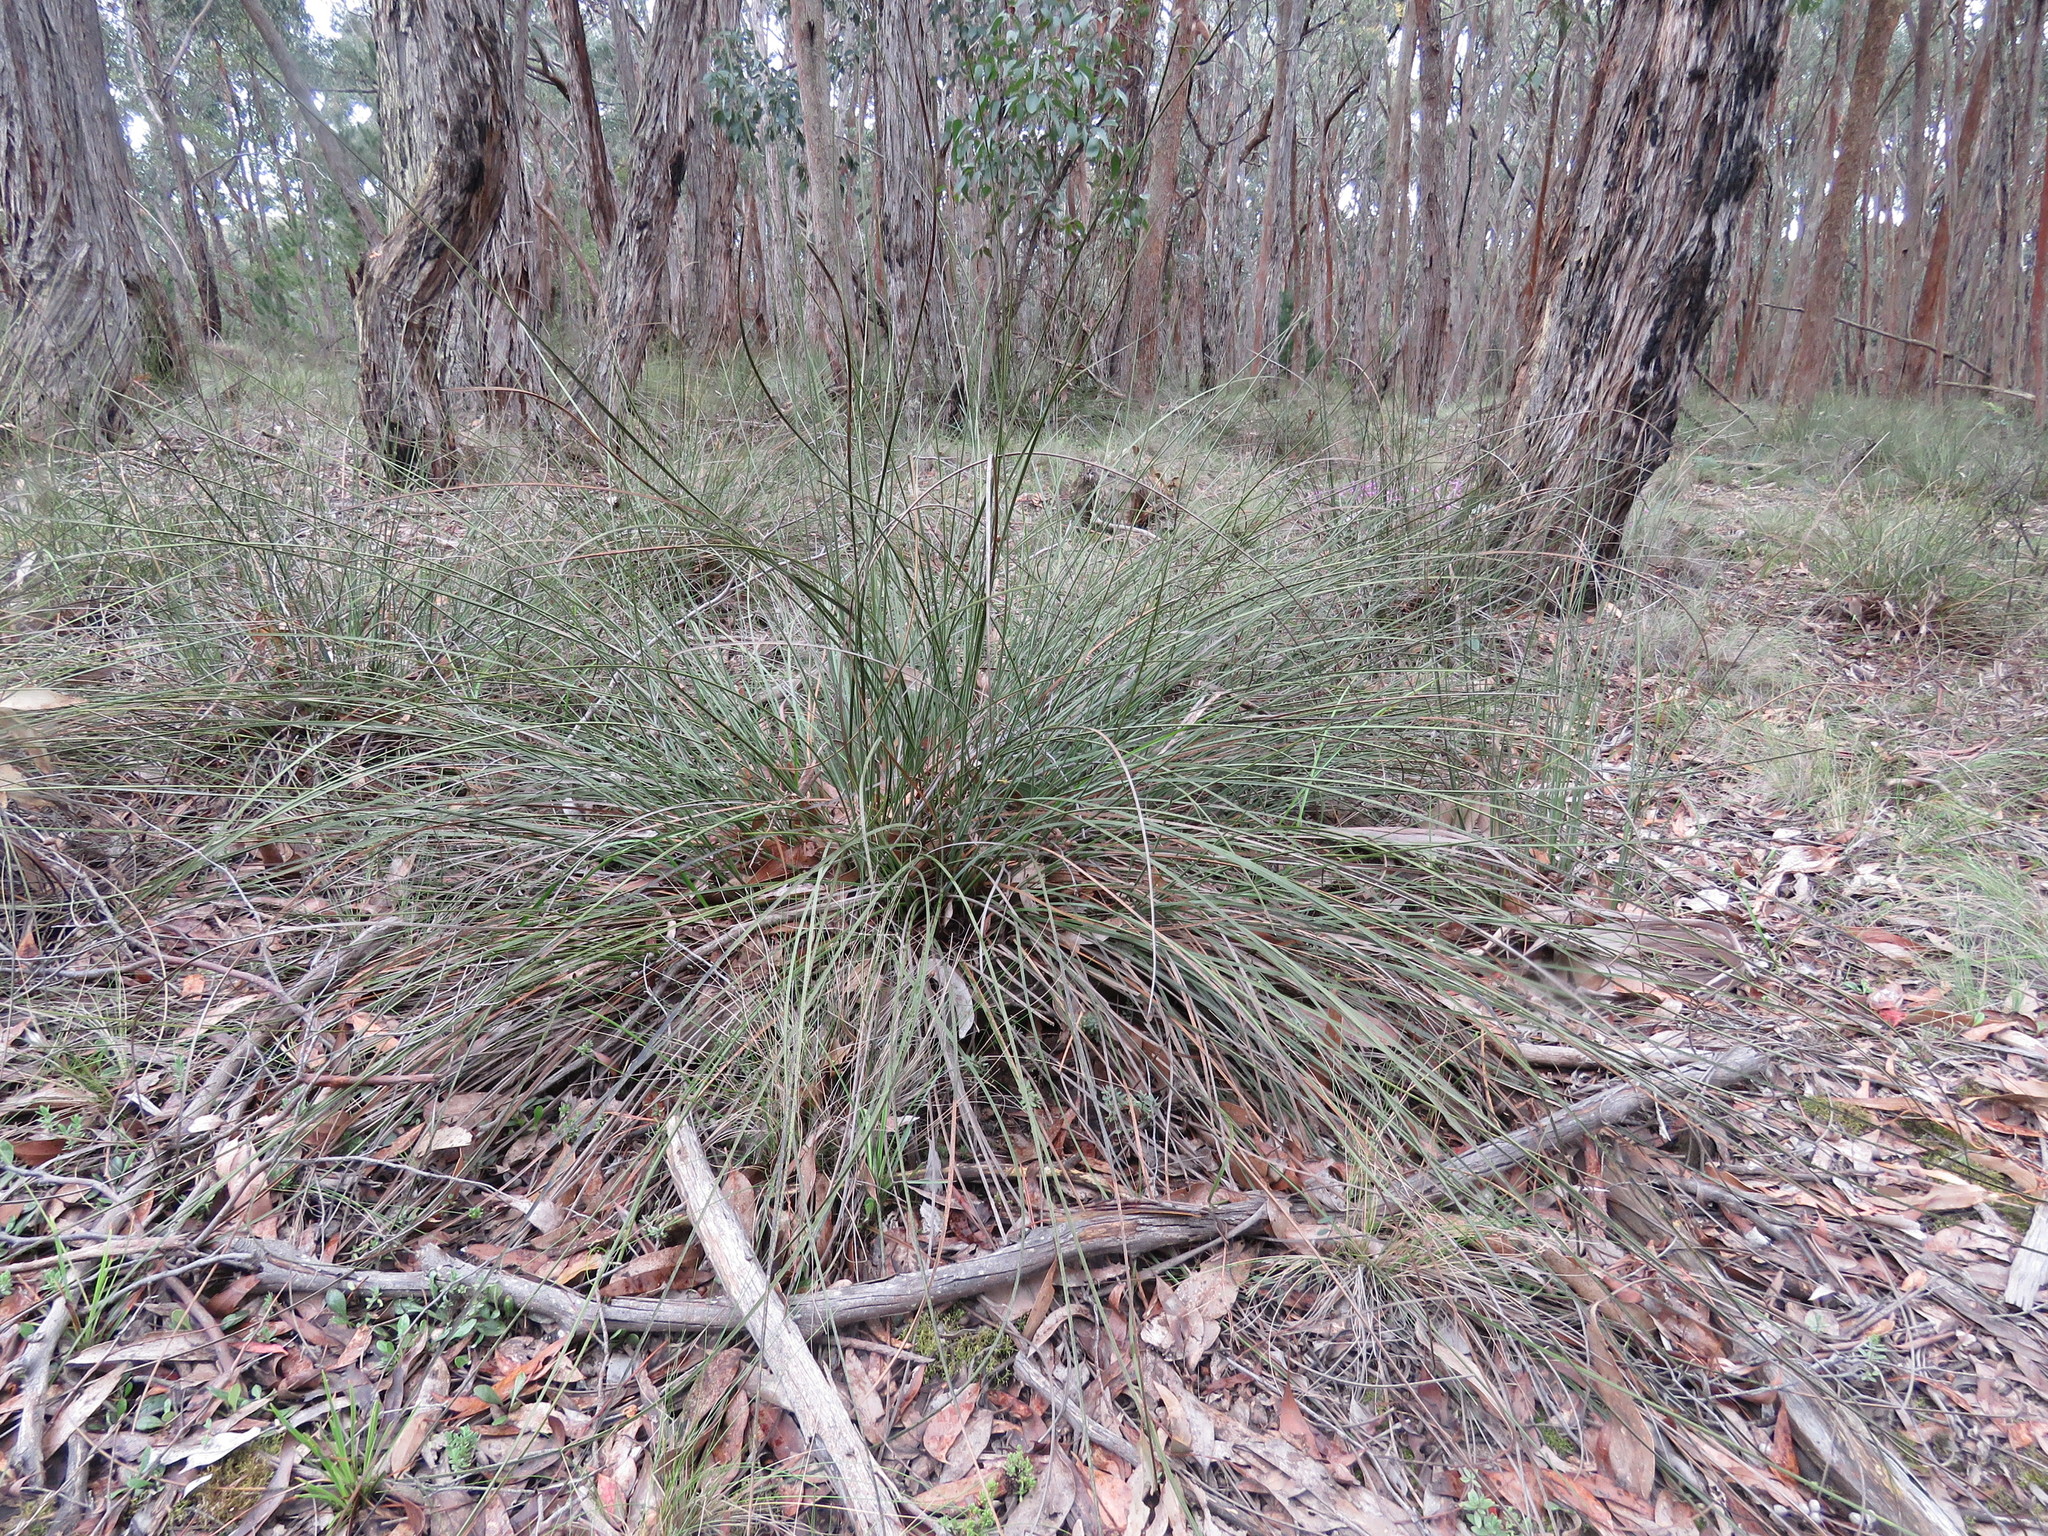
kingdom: Plantae
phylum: Tracheophyta
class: Liliopsida
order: Asparagales
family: Asphodelaceae
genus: Xanthorrhoea
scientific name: Xanthorrhoea minor
